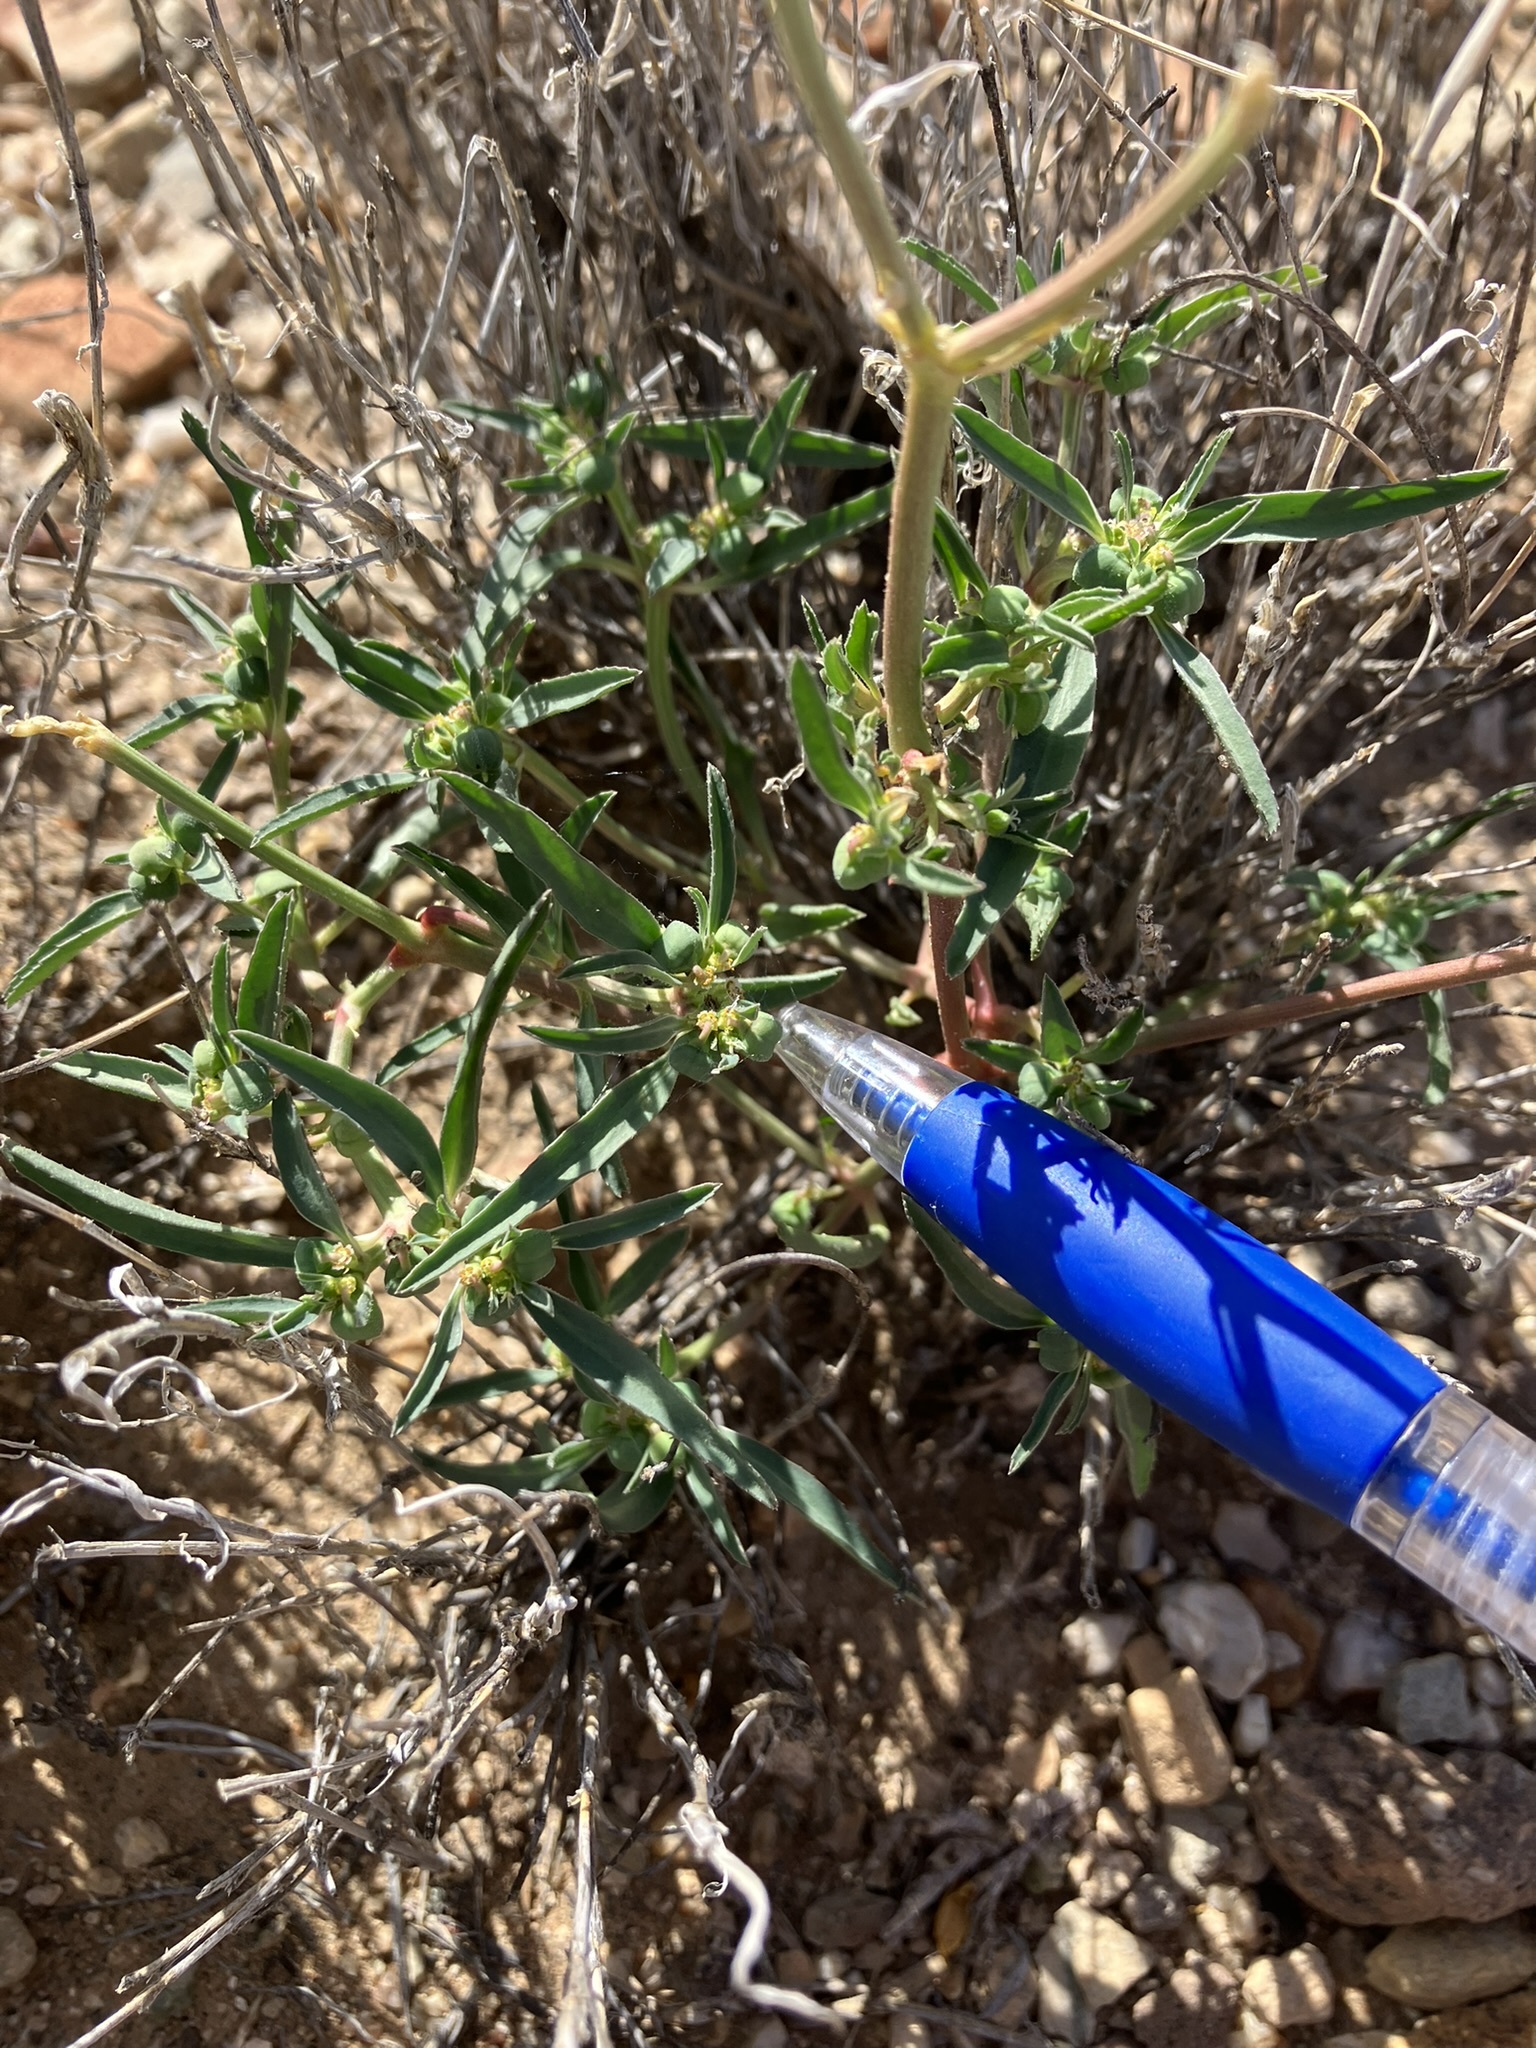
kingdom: Plantae
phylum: Tracheophyta
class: Magnoliopsida
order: Malpighiales
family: Euphorbiaceae
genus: Euphorbia
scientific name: Euphorbia exstipulata
